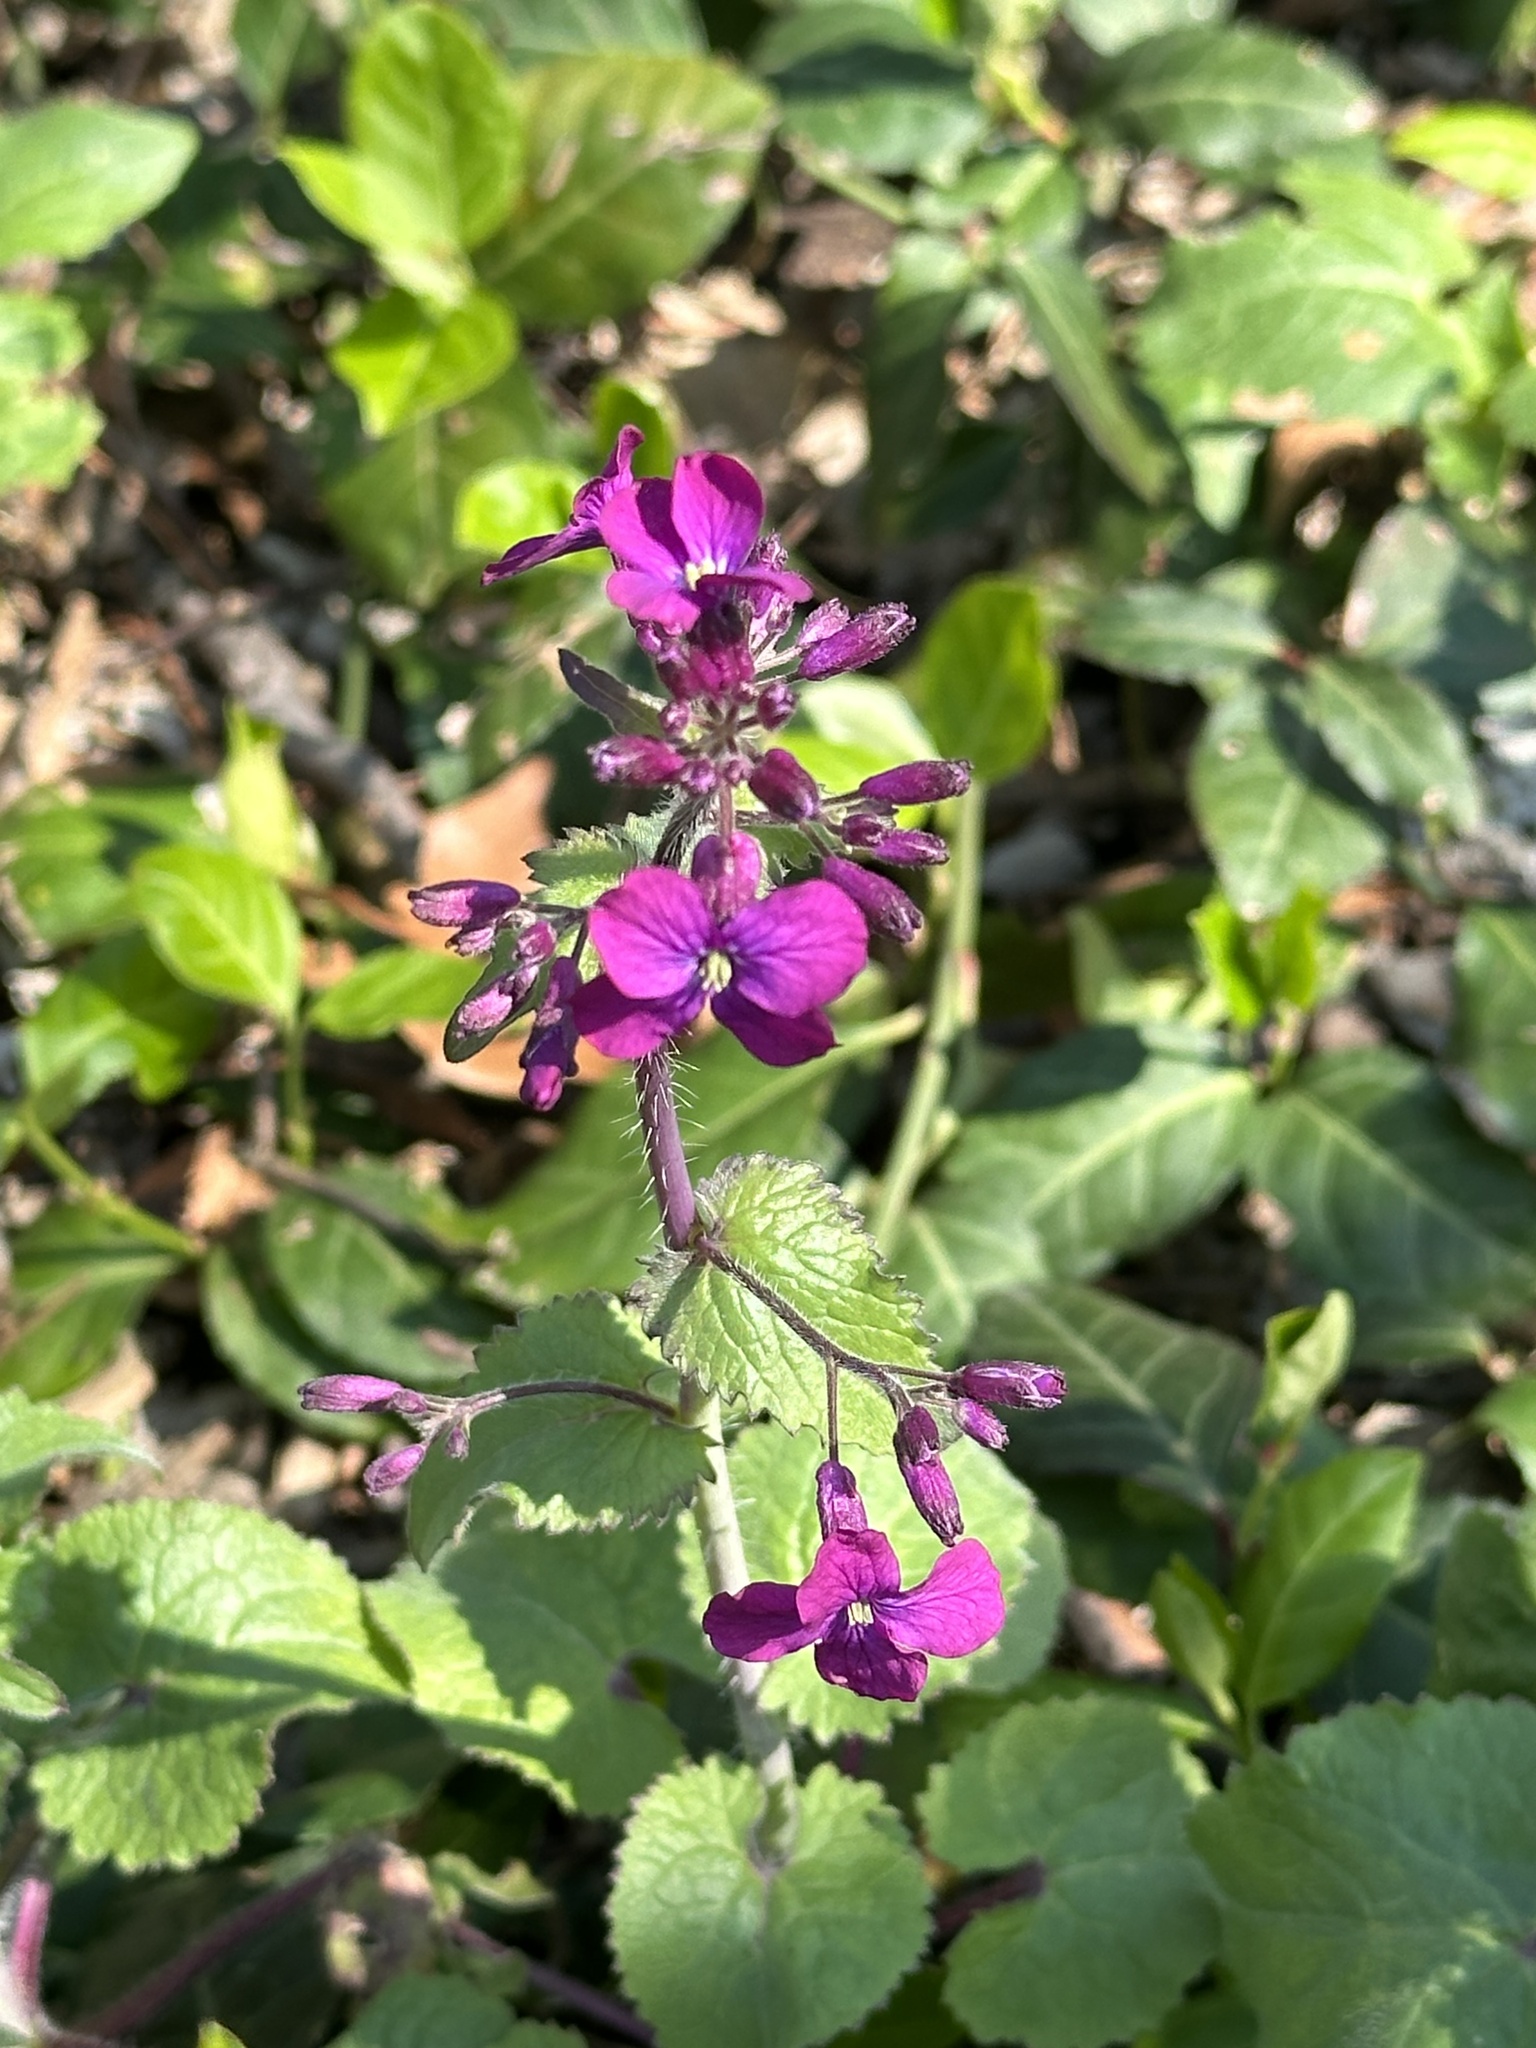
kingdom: Plantae
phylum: Tracheophyta
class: Magnoliopsida
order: Brassicales
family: Brassicaceae
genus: Lunaria
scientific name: Lunaria annua
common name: Honesty
